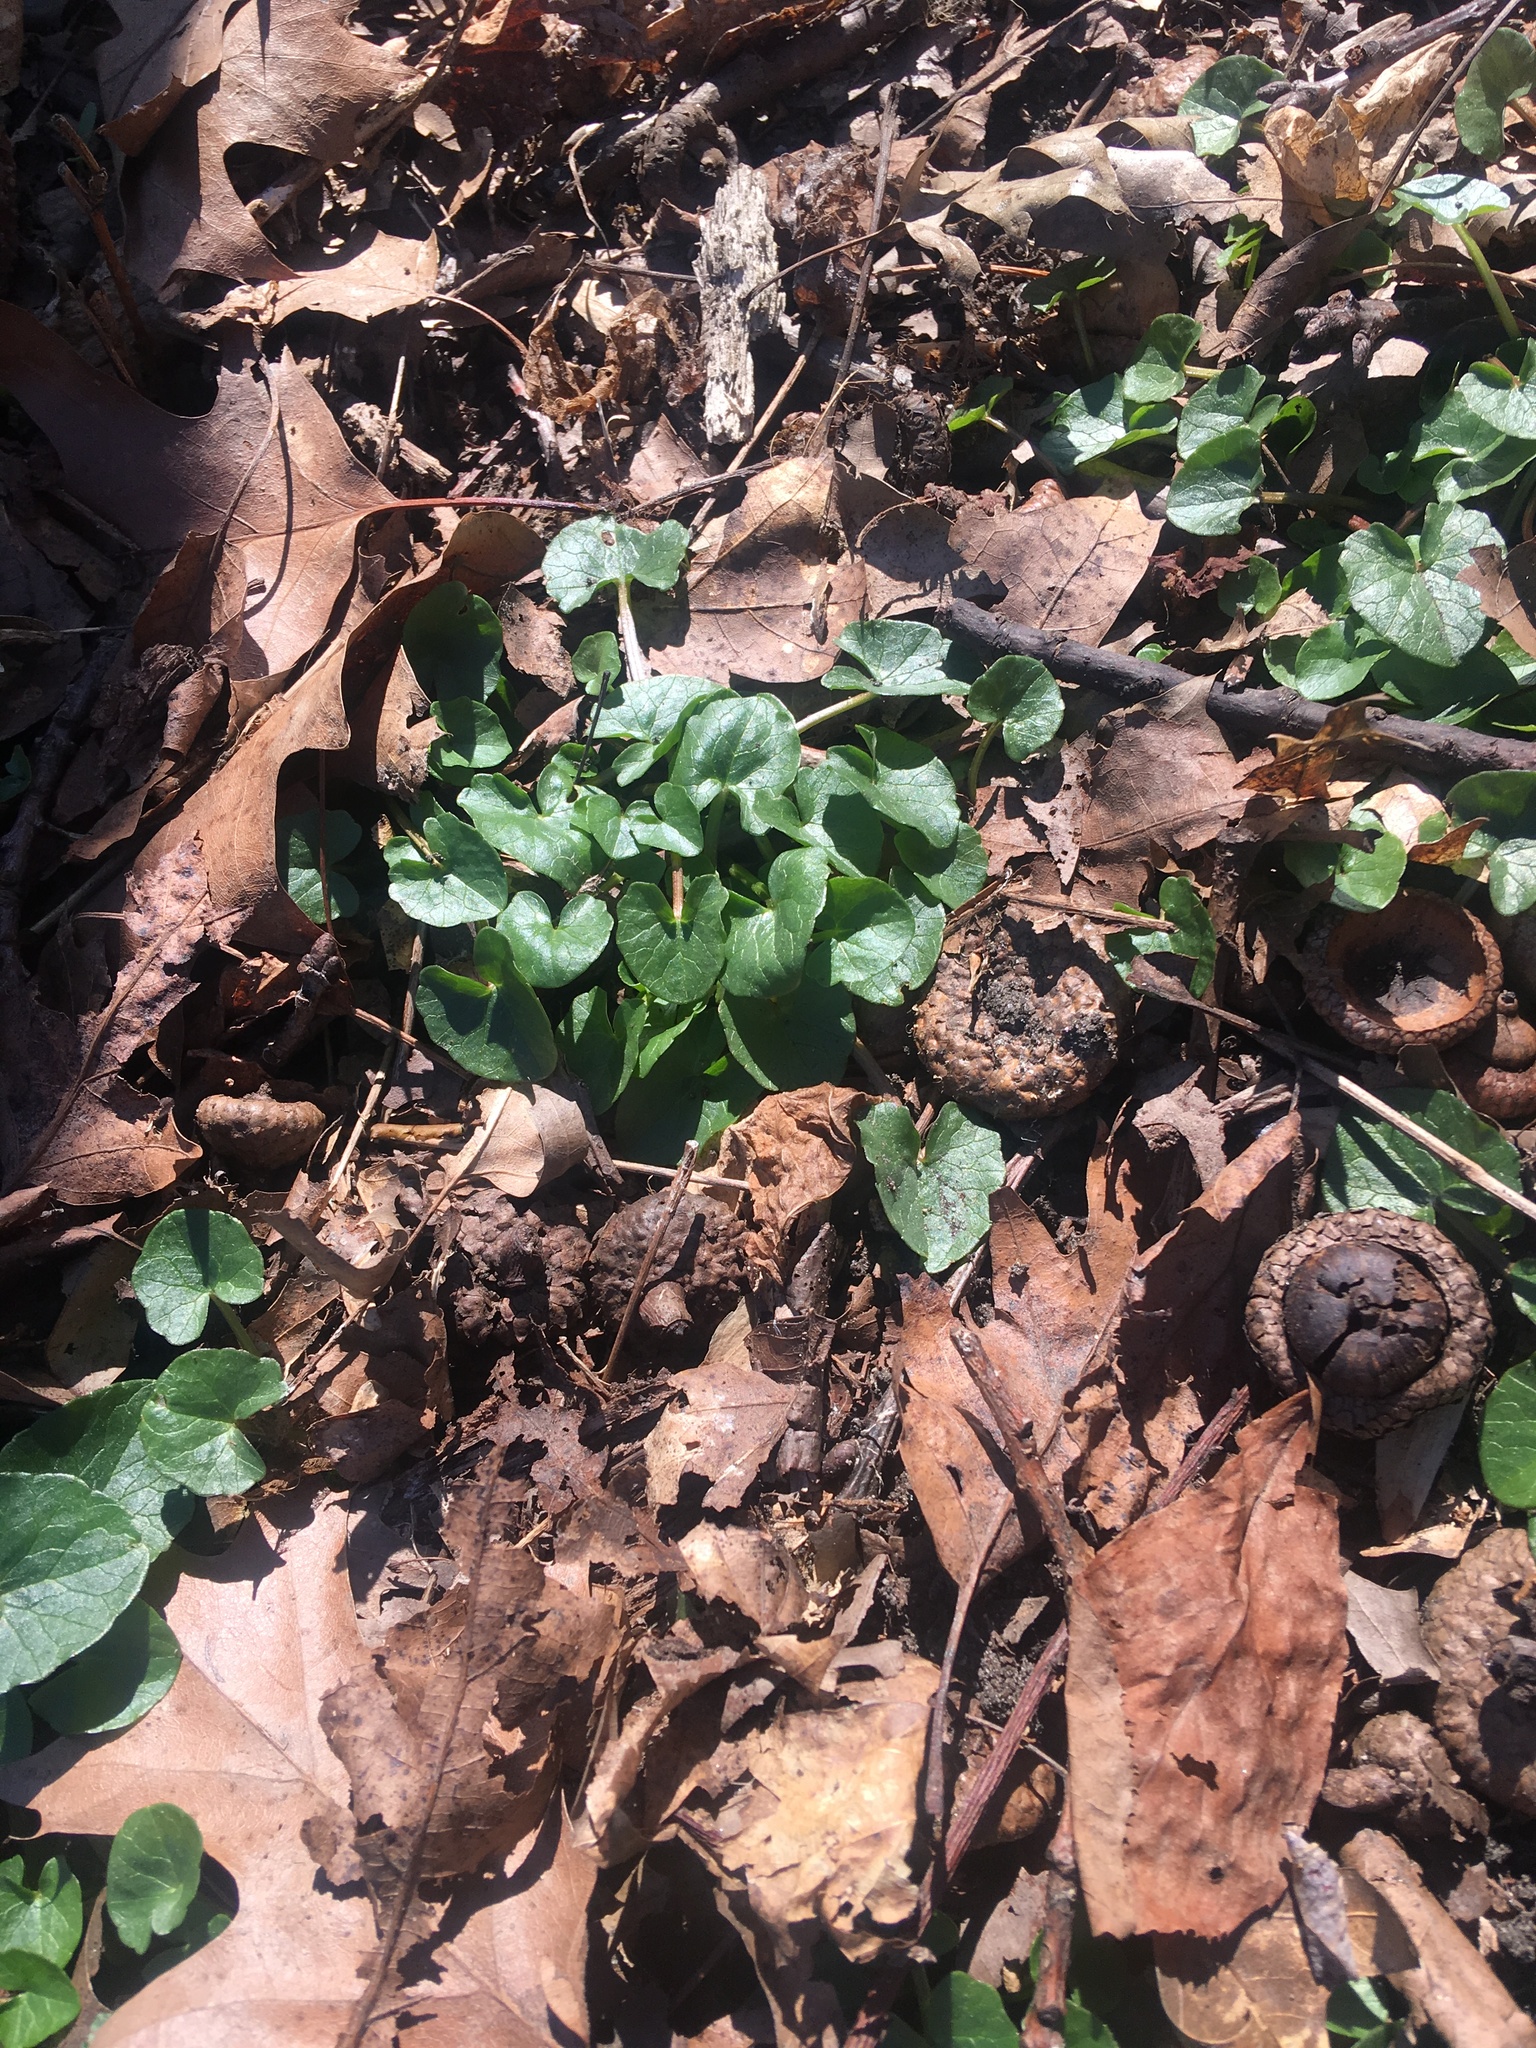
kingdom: Plantae
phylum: Tracheophyta
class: Magnoliopsida
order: Ranunculales
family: Ranunculaceae
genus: Ficaria
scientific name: Ficaria verna
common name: Lesser celandine
